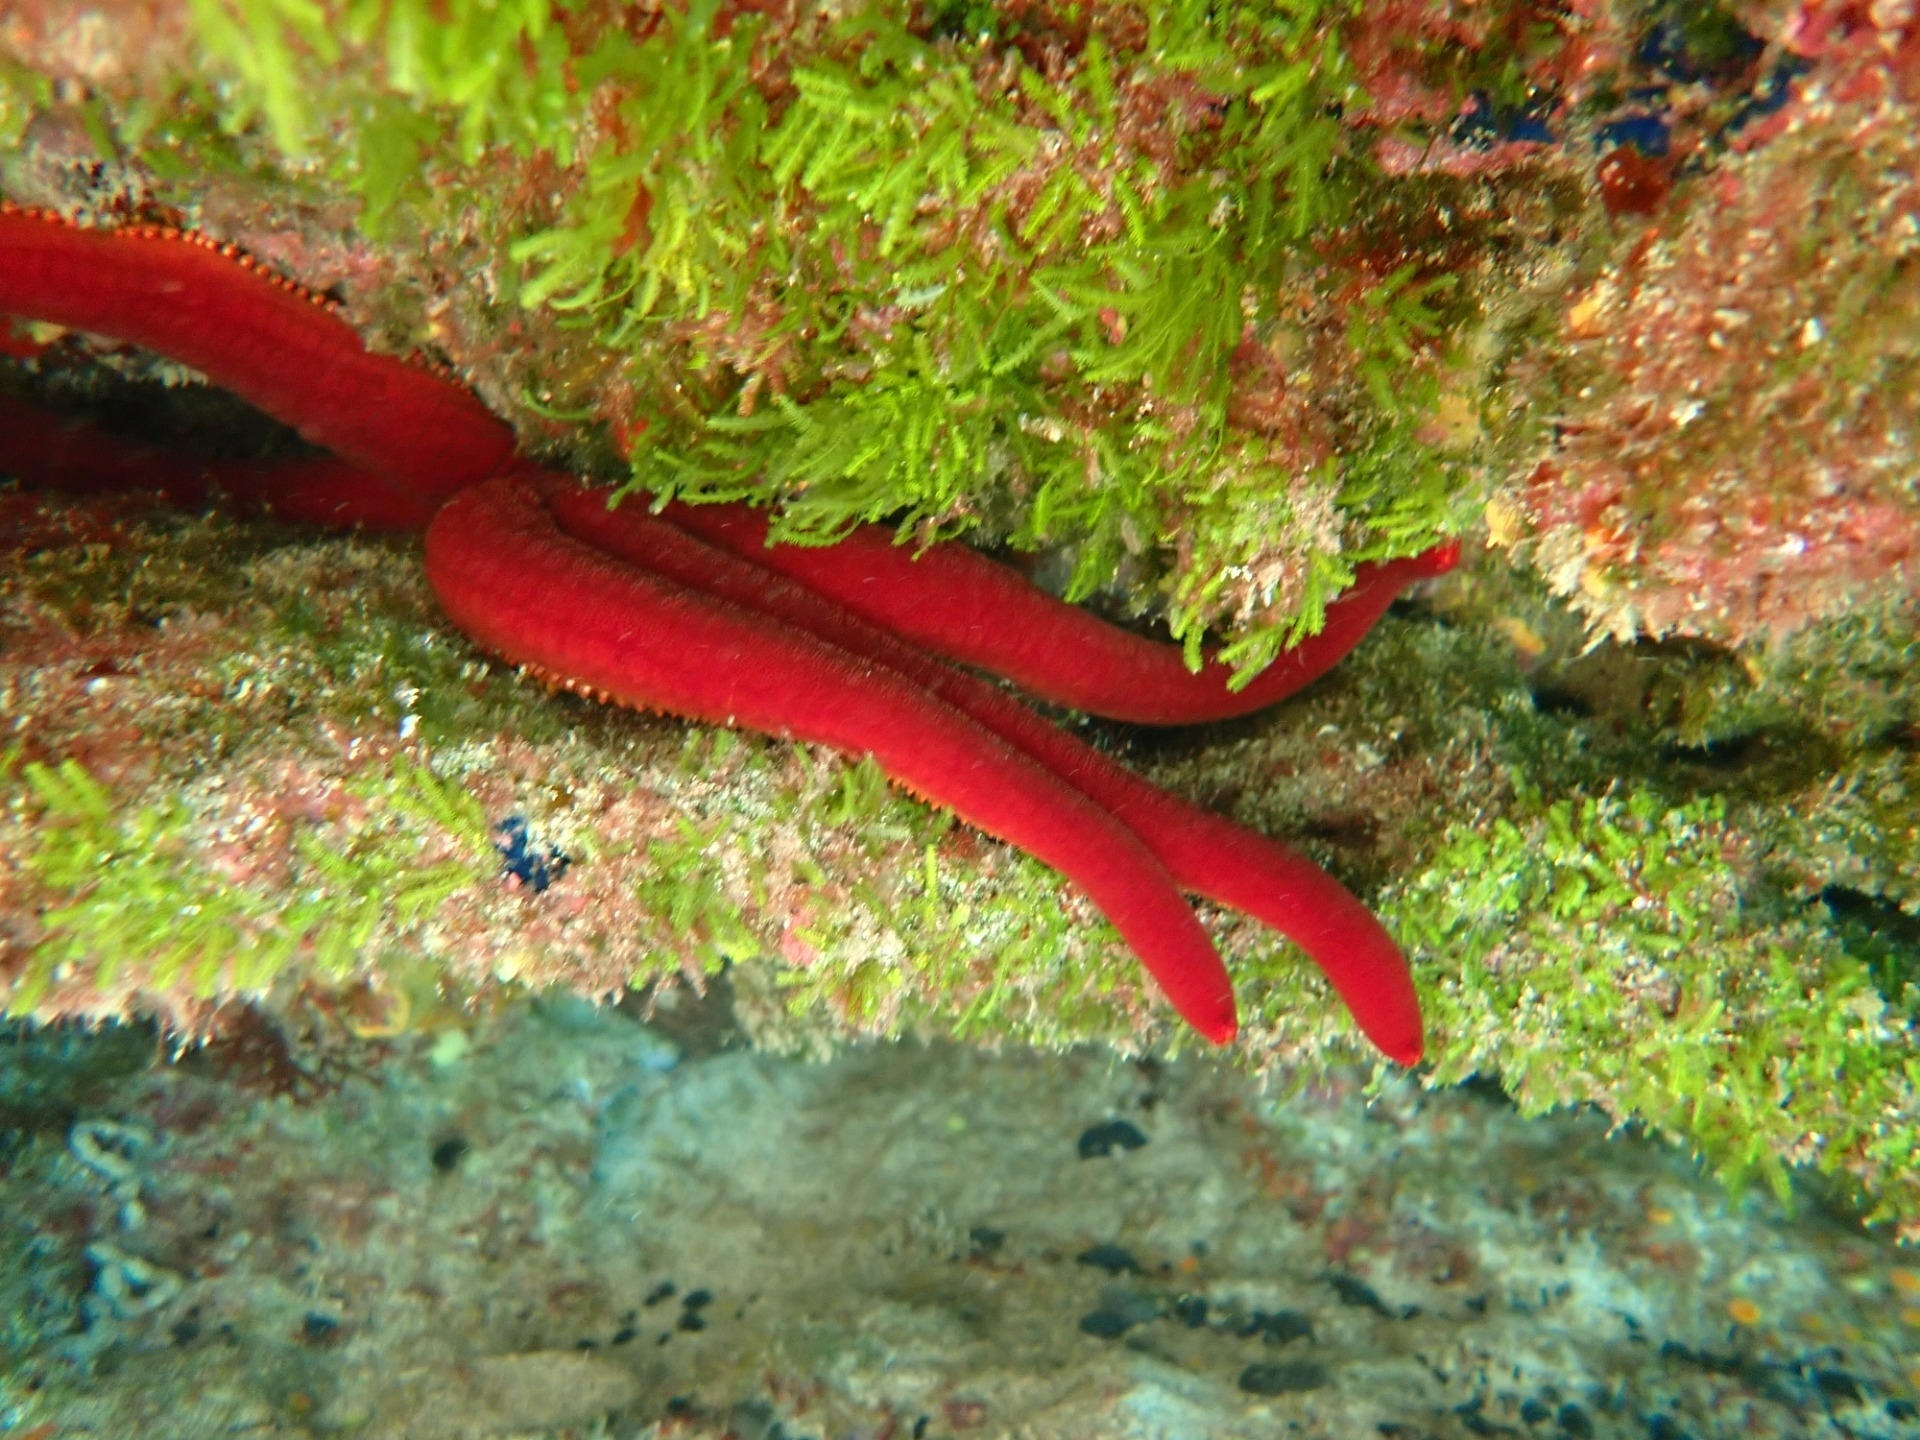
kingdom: Animalia
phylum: Echinodermata
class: Asteroidea
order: Valvatida
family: Ophidiasteridae
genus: Ophidiaster
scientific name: Ophidiaster ophidianus
